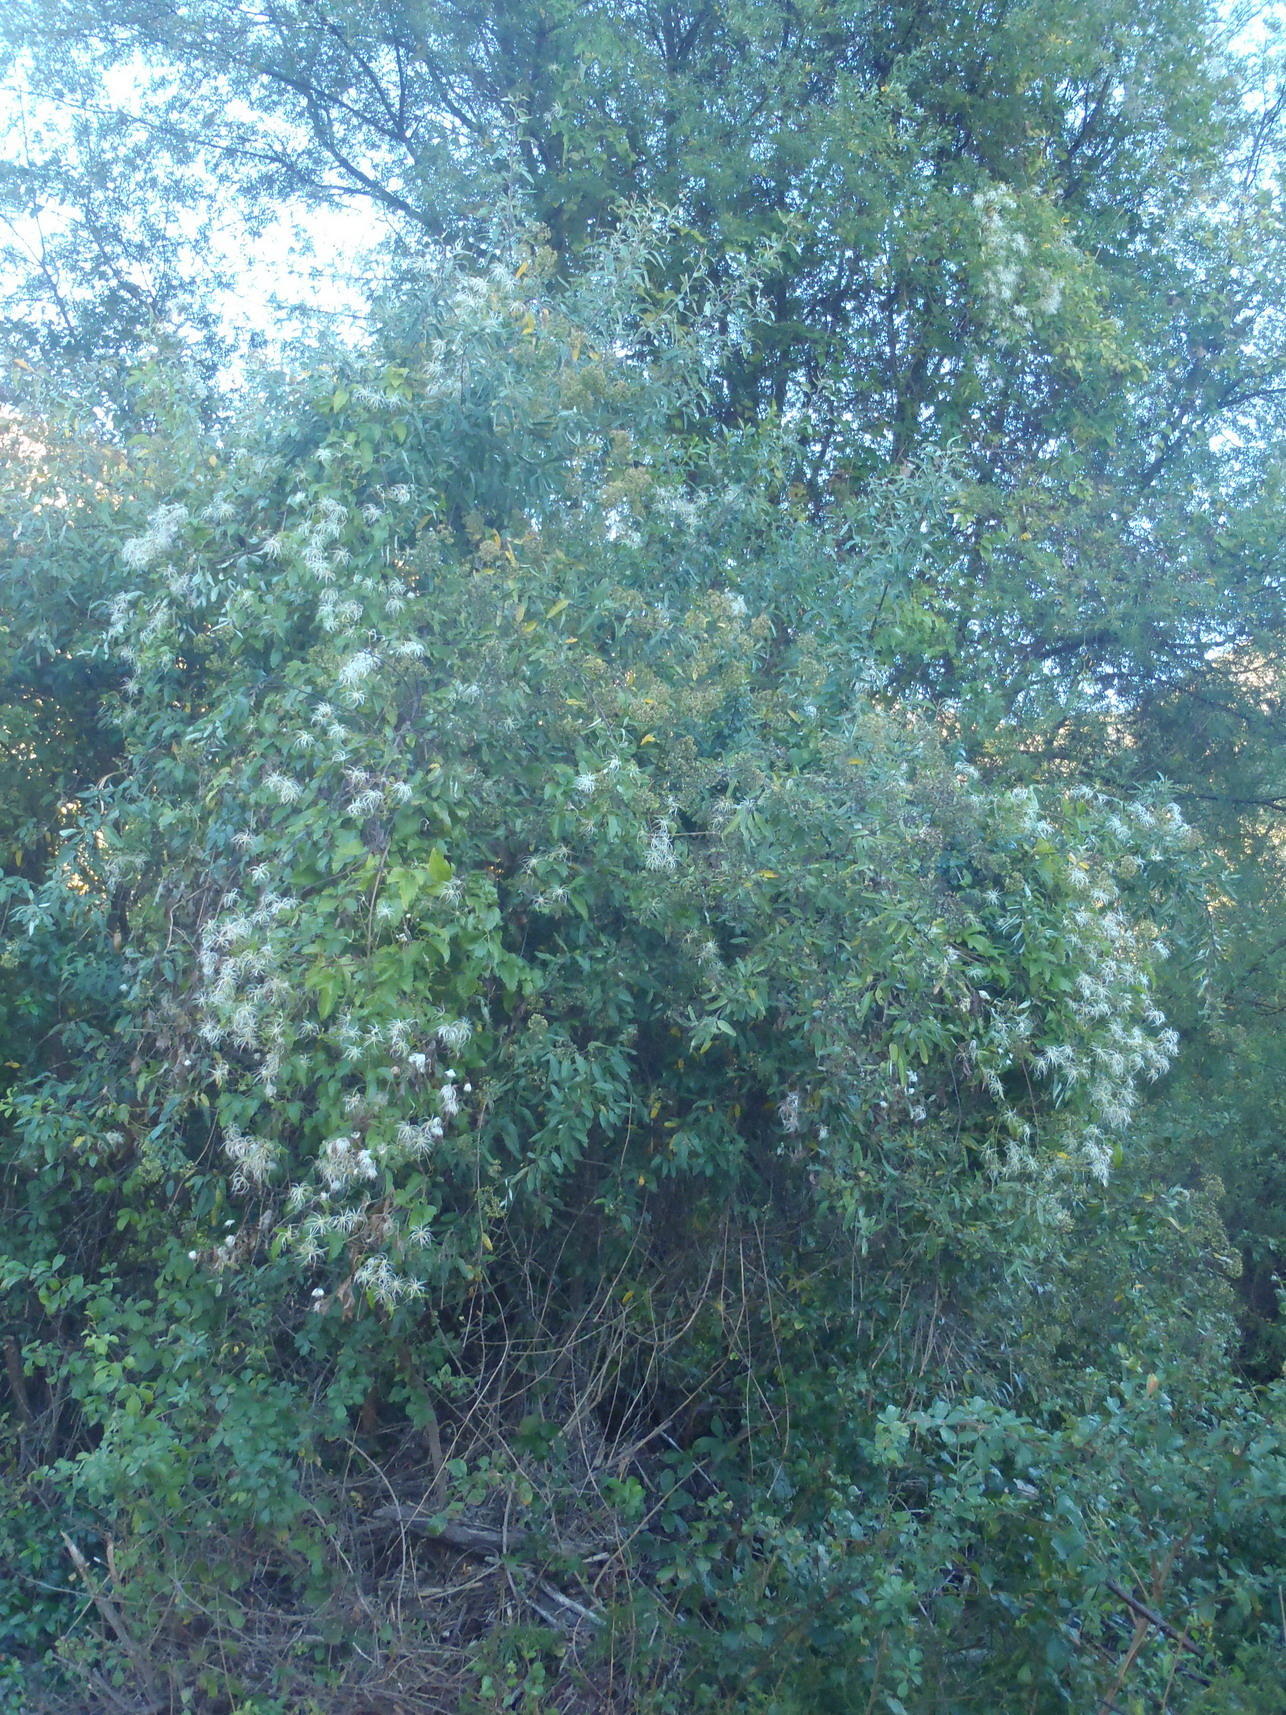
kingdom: Plantae
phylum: Tracheophyta
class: Magnoliopsida
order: Ranunculales
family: Ranunculaceae
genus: Clematis
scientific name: Clematis brachiata
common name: Traveler's-joy
